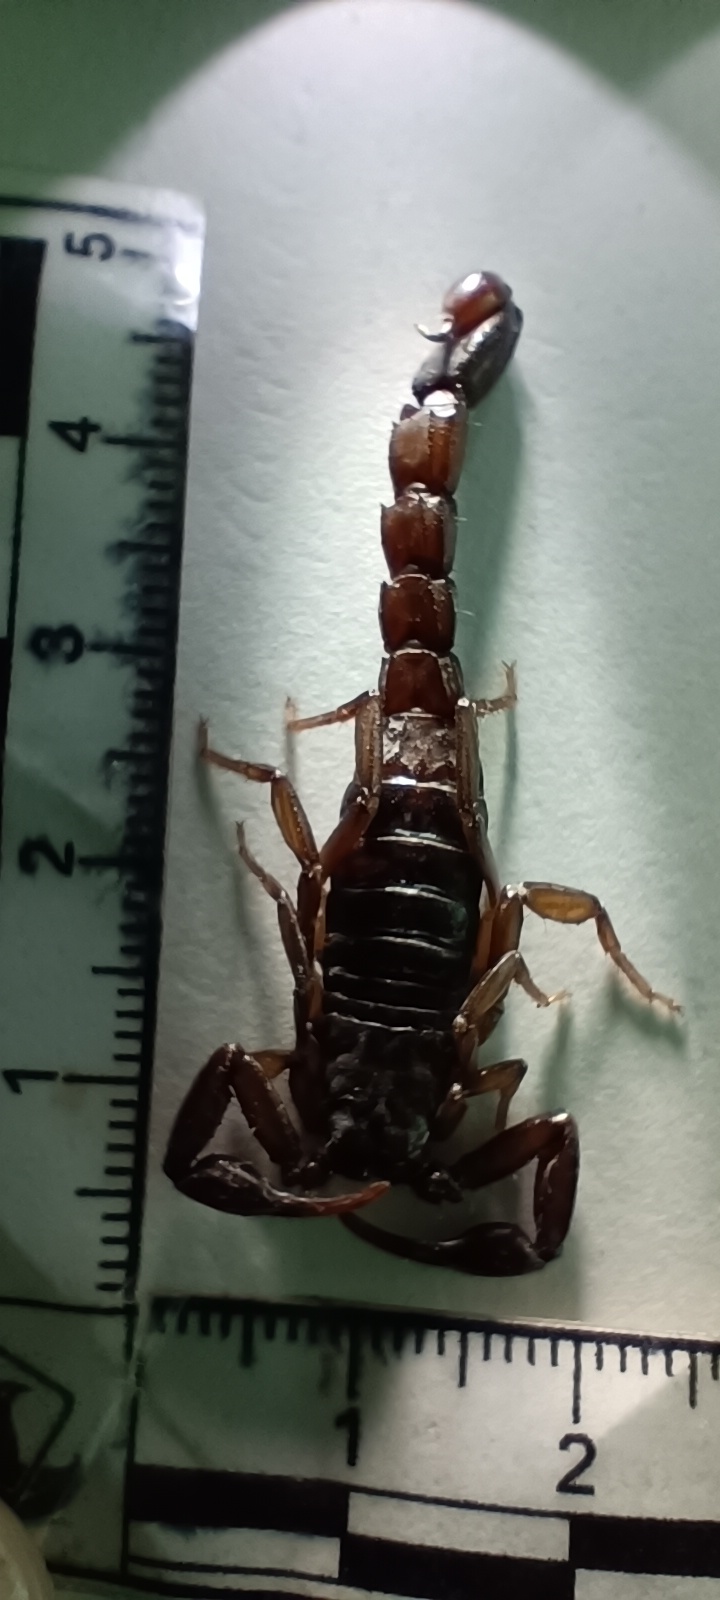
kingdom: Animalia
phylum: Arthropoda
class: Arachnida
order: Scorpiones
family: Vaejovidae
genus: Vaejovis
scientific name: Vaejovis nigrescens
